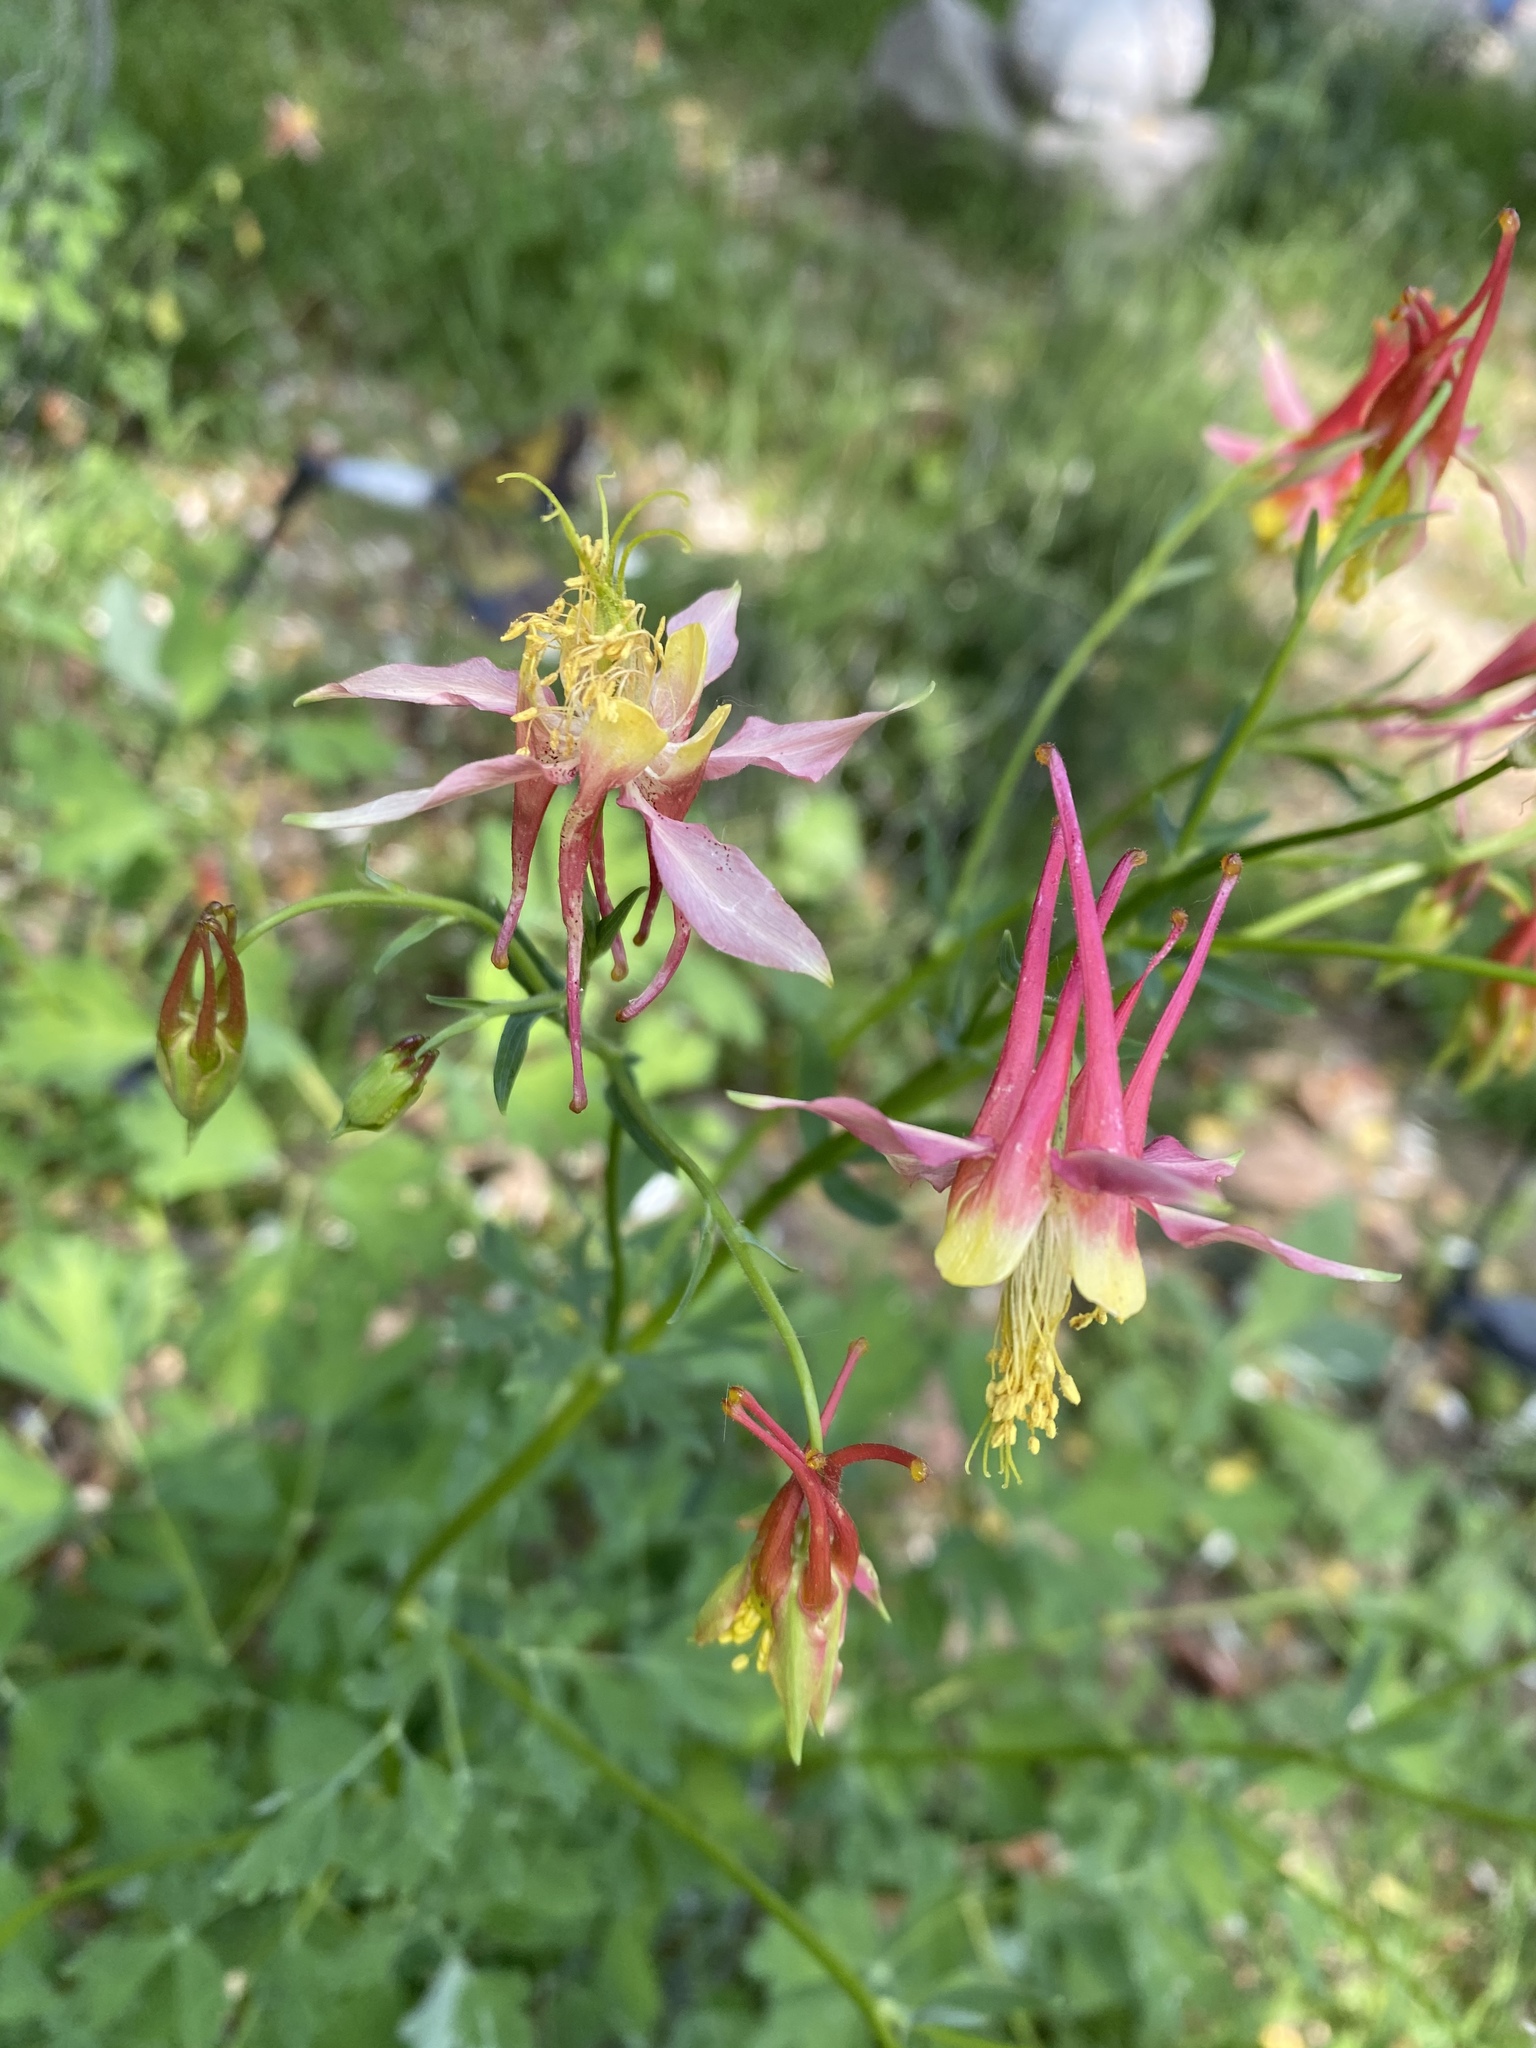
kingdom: Plantae
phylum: Tracheophyta
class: Magnoliopsida
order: Ranunculales
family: Ranunculaceae
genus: Aquilegia
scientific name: Aquilegia formosa
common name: Sitka columbine
